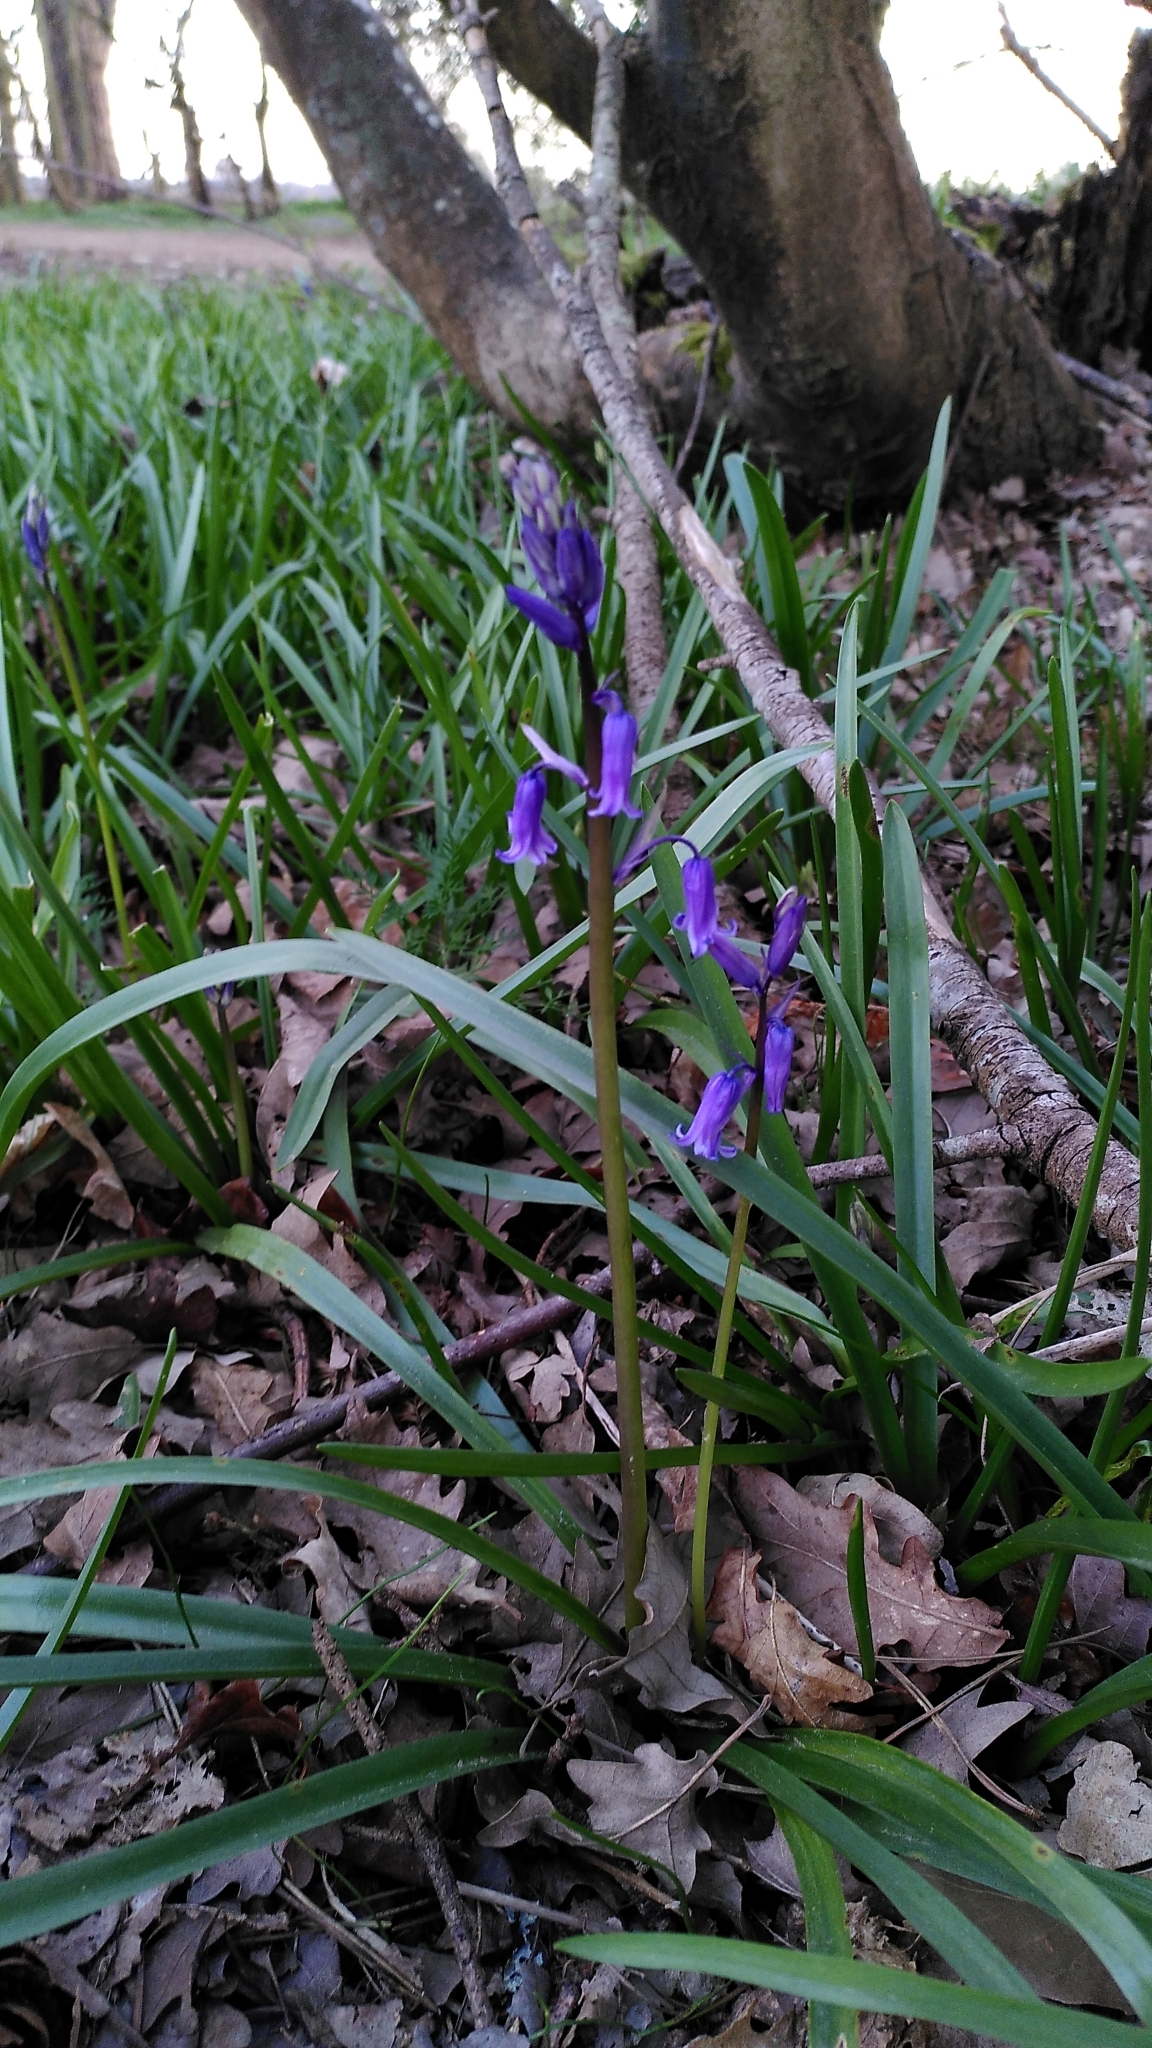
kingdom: Plantae
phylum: Tracheophyta
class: Liliopsida
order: Asparagales
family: Asparagaceae
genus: Hyacinthoides
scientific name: Hyacinthoides non-scripta
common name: Bluebell
